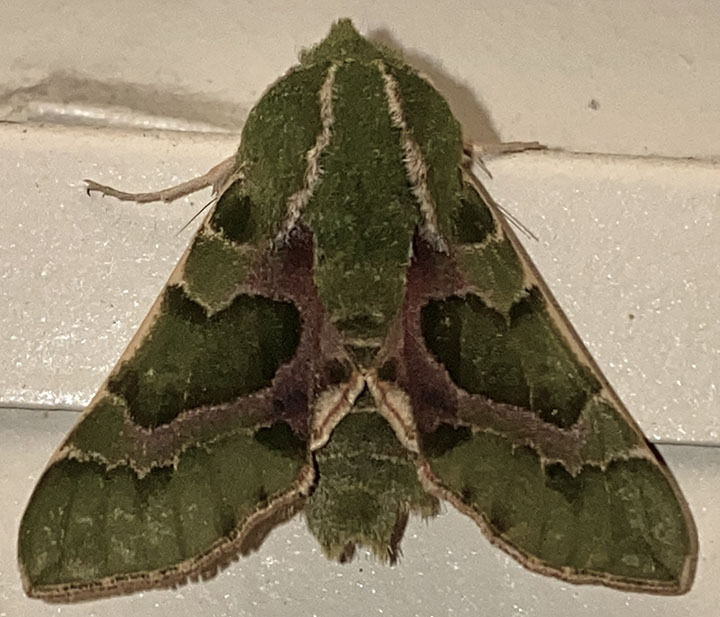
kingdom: Animalia
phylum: Arthropoda
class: Insecta
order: Lepidoptera
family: Sphingidae
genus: Proserpinus
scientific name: Proserpinus lucidus
